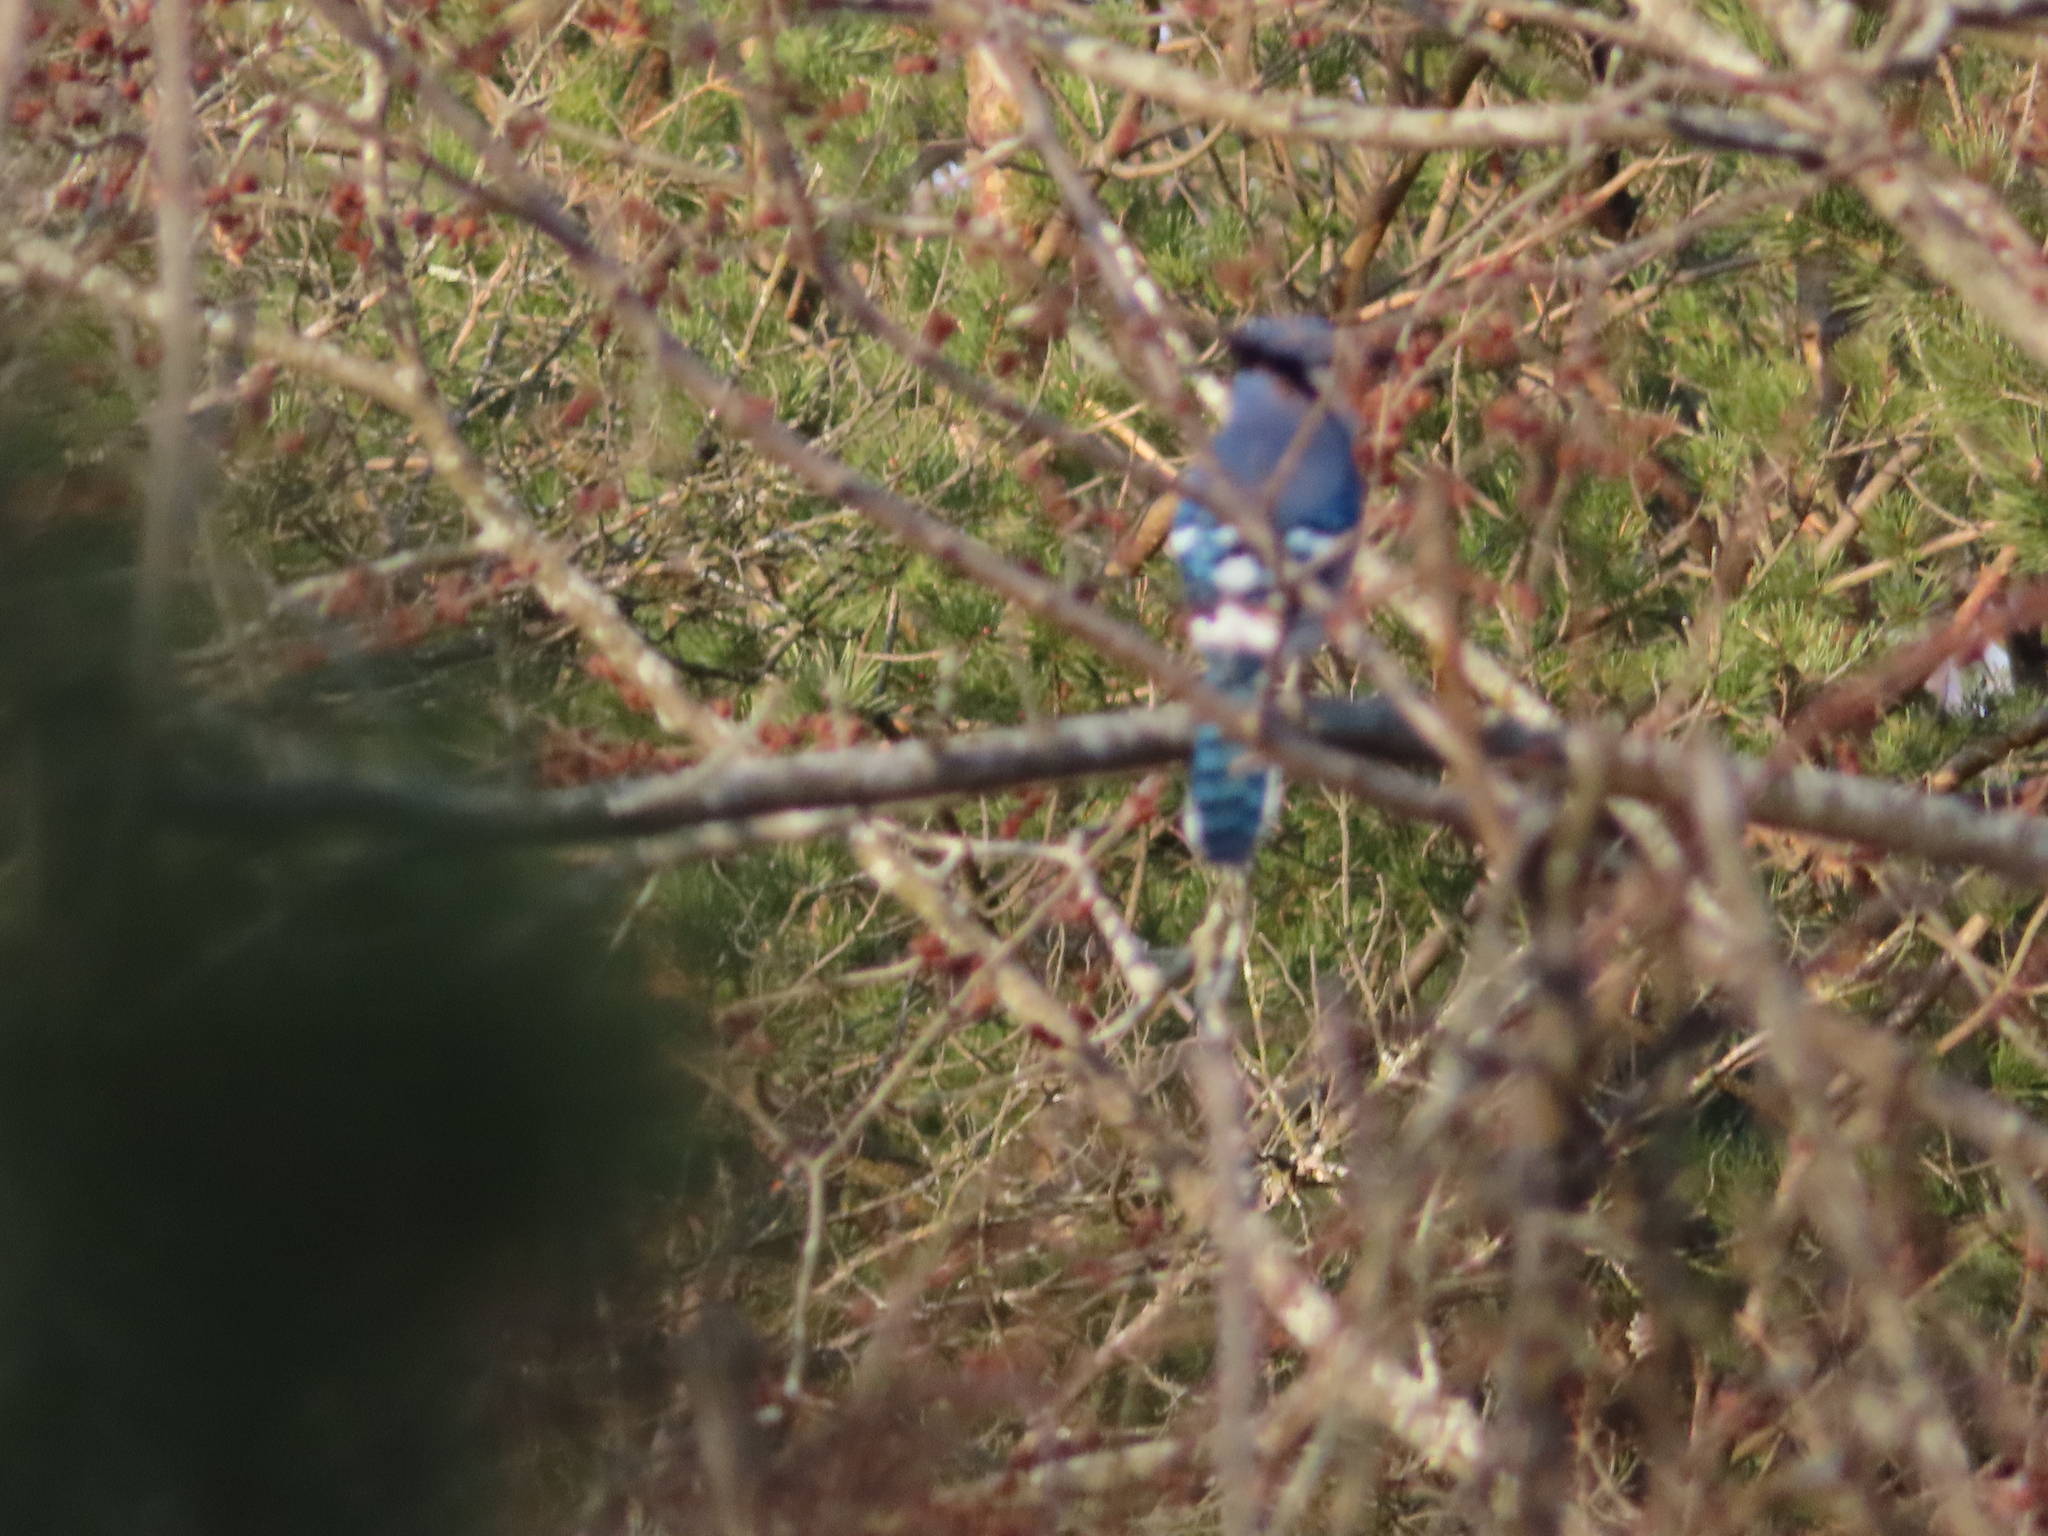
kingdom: Animalia
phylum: Chordata
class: Aves
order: Passeriformes
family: Corvidae
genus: Cyanocitta
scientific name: Cyanocitta cristata
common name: Blue jay
